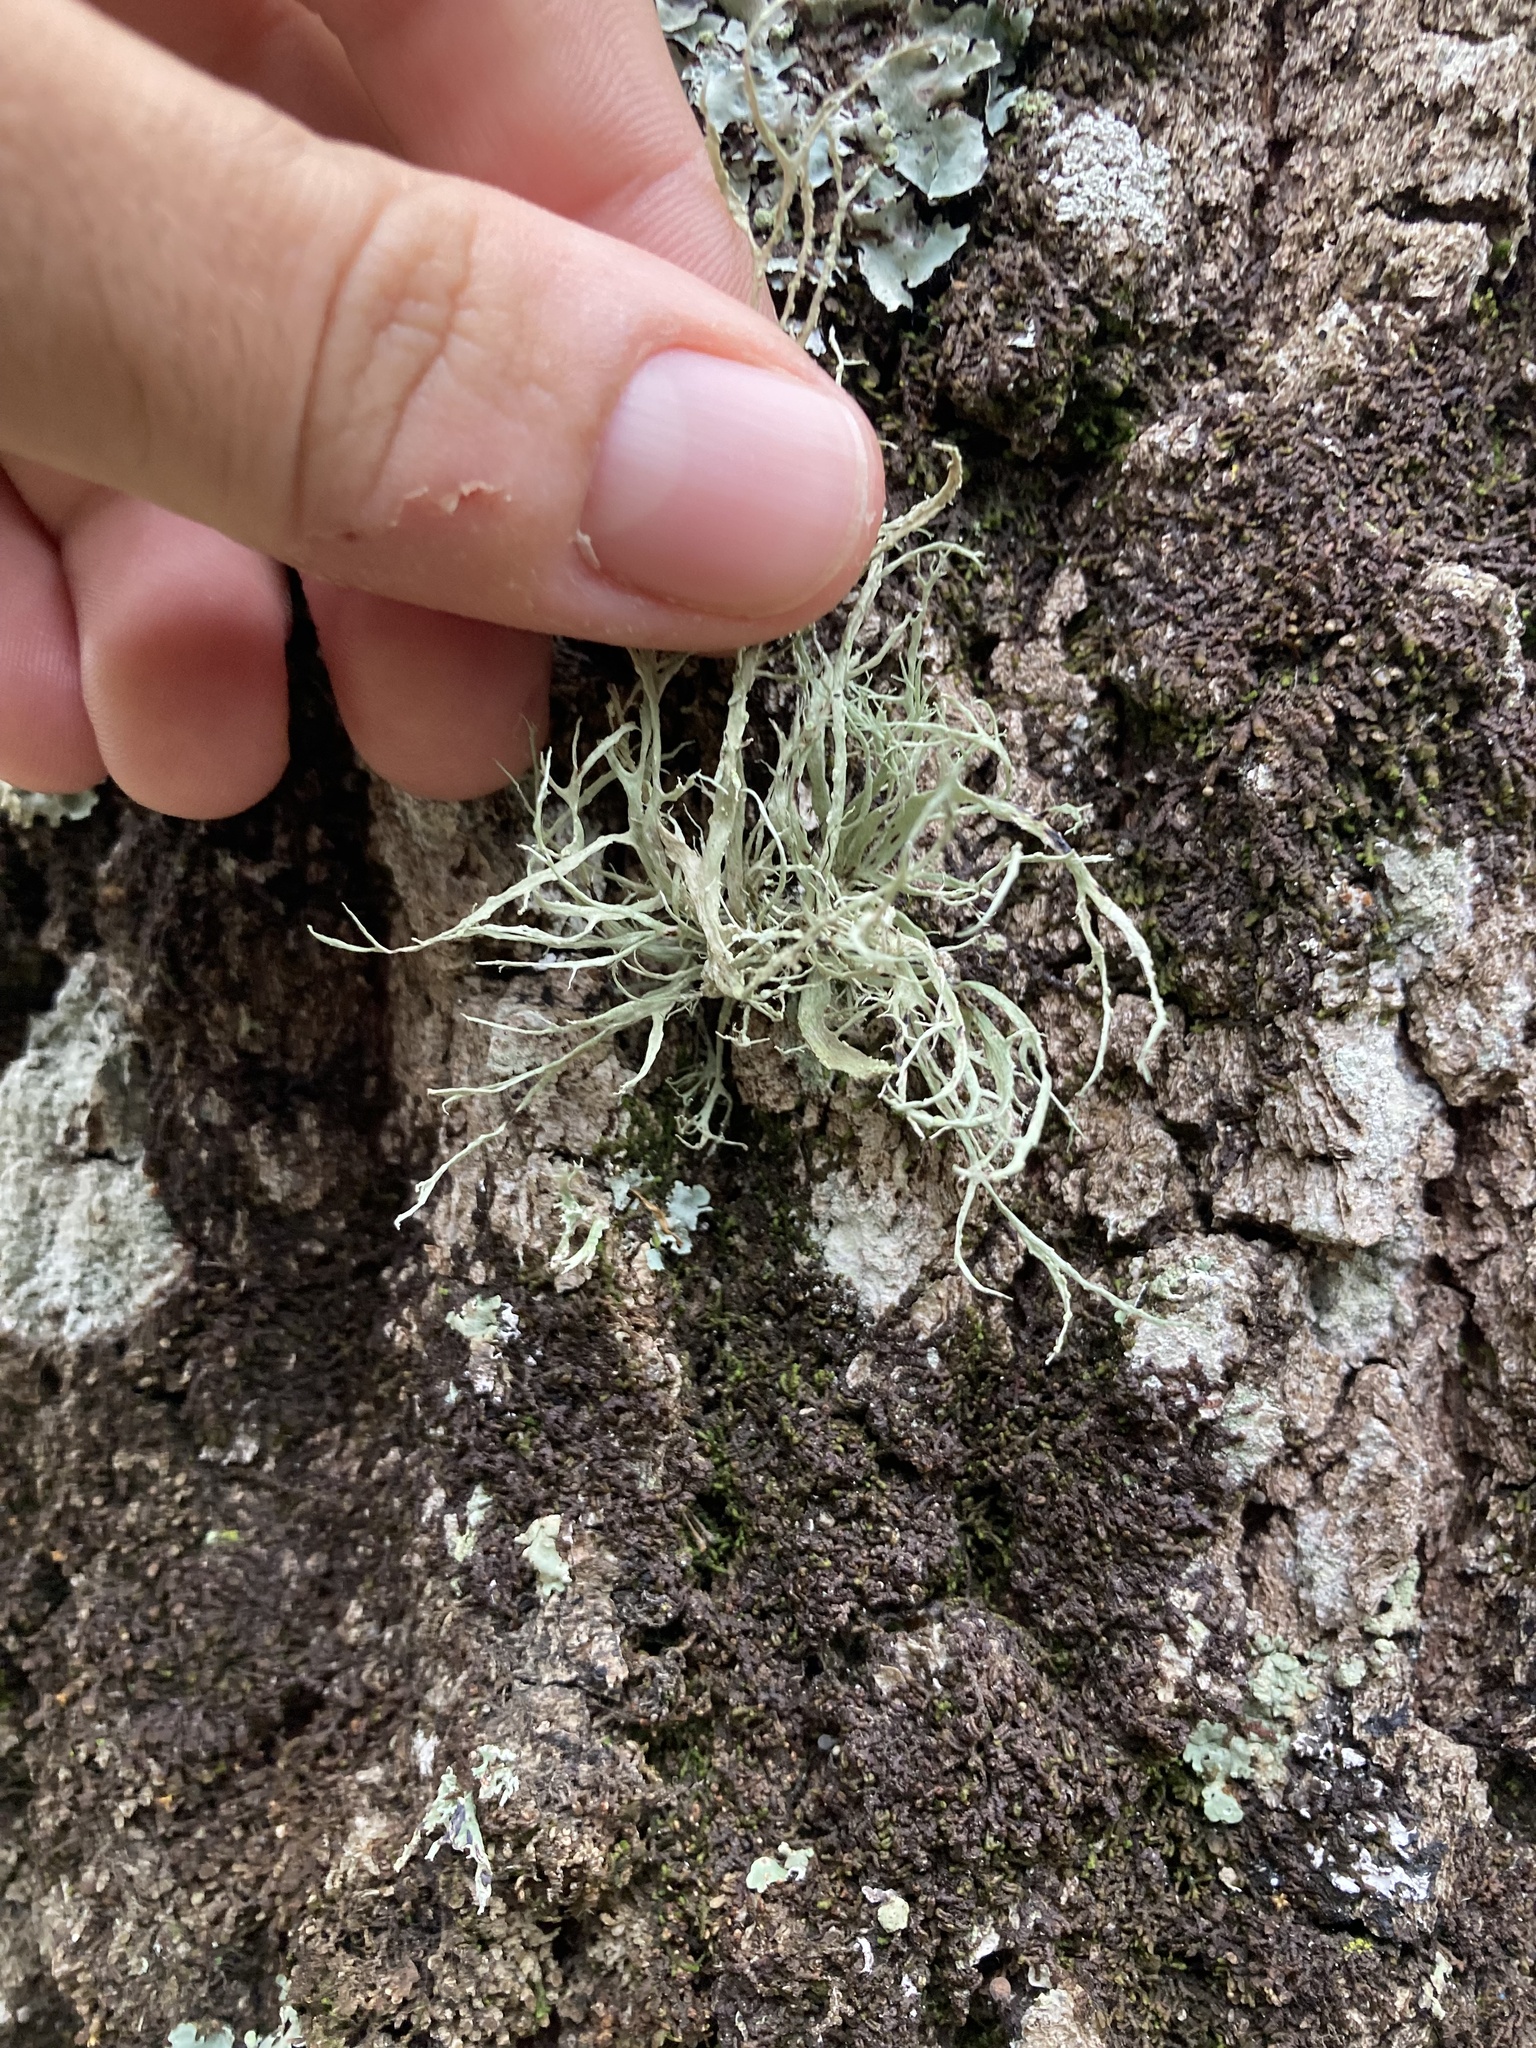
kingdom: Fungi
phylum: Ascomycota
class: Lecanoromycetes
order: Lecanorales
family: Ramalinaceae
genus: Ramalina
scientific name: Ramalina farinacea
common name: Farinose cartilage lichen
